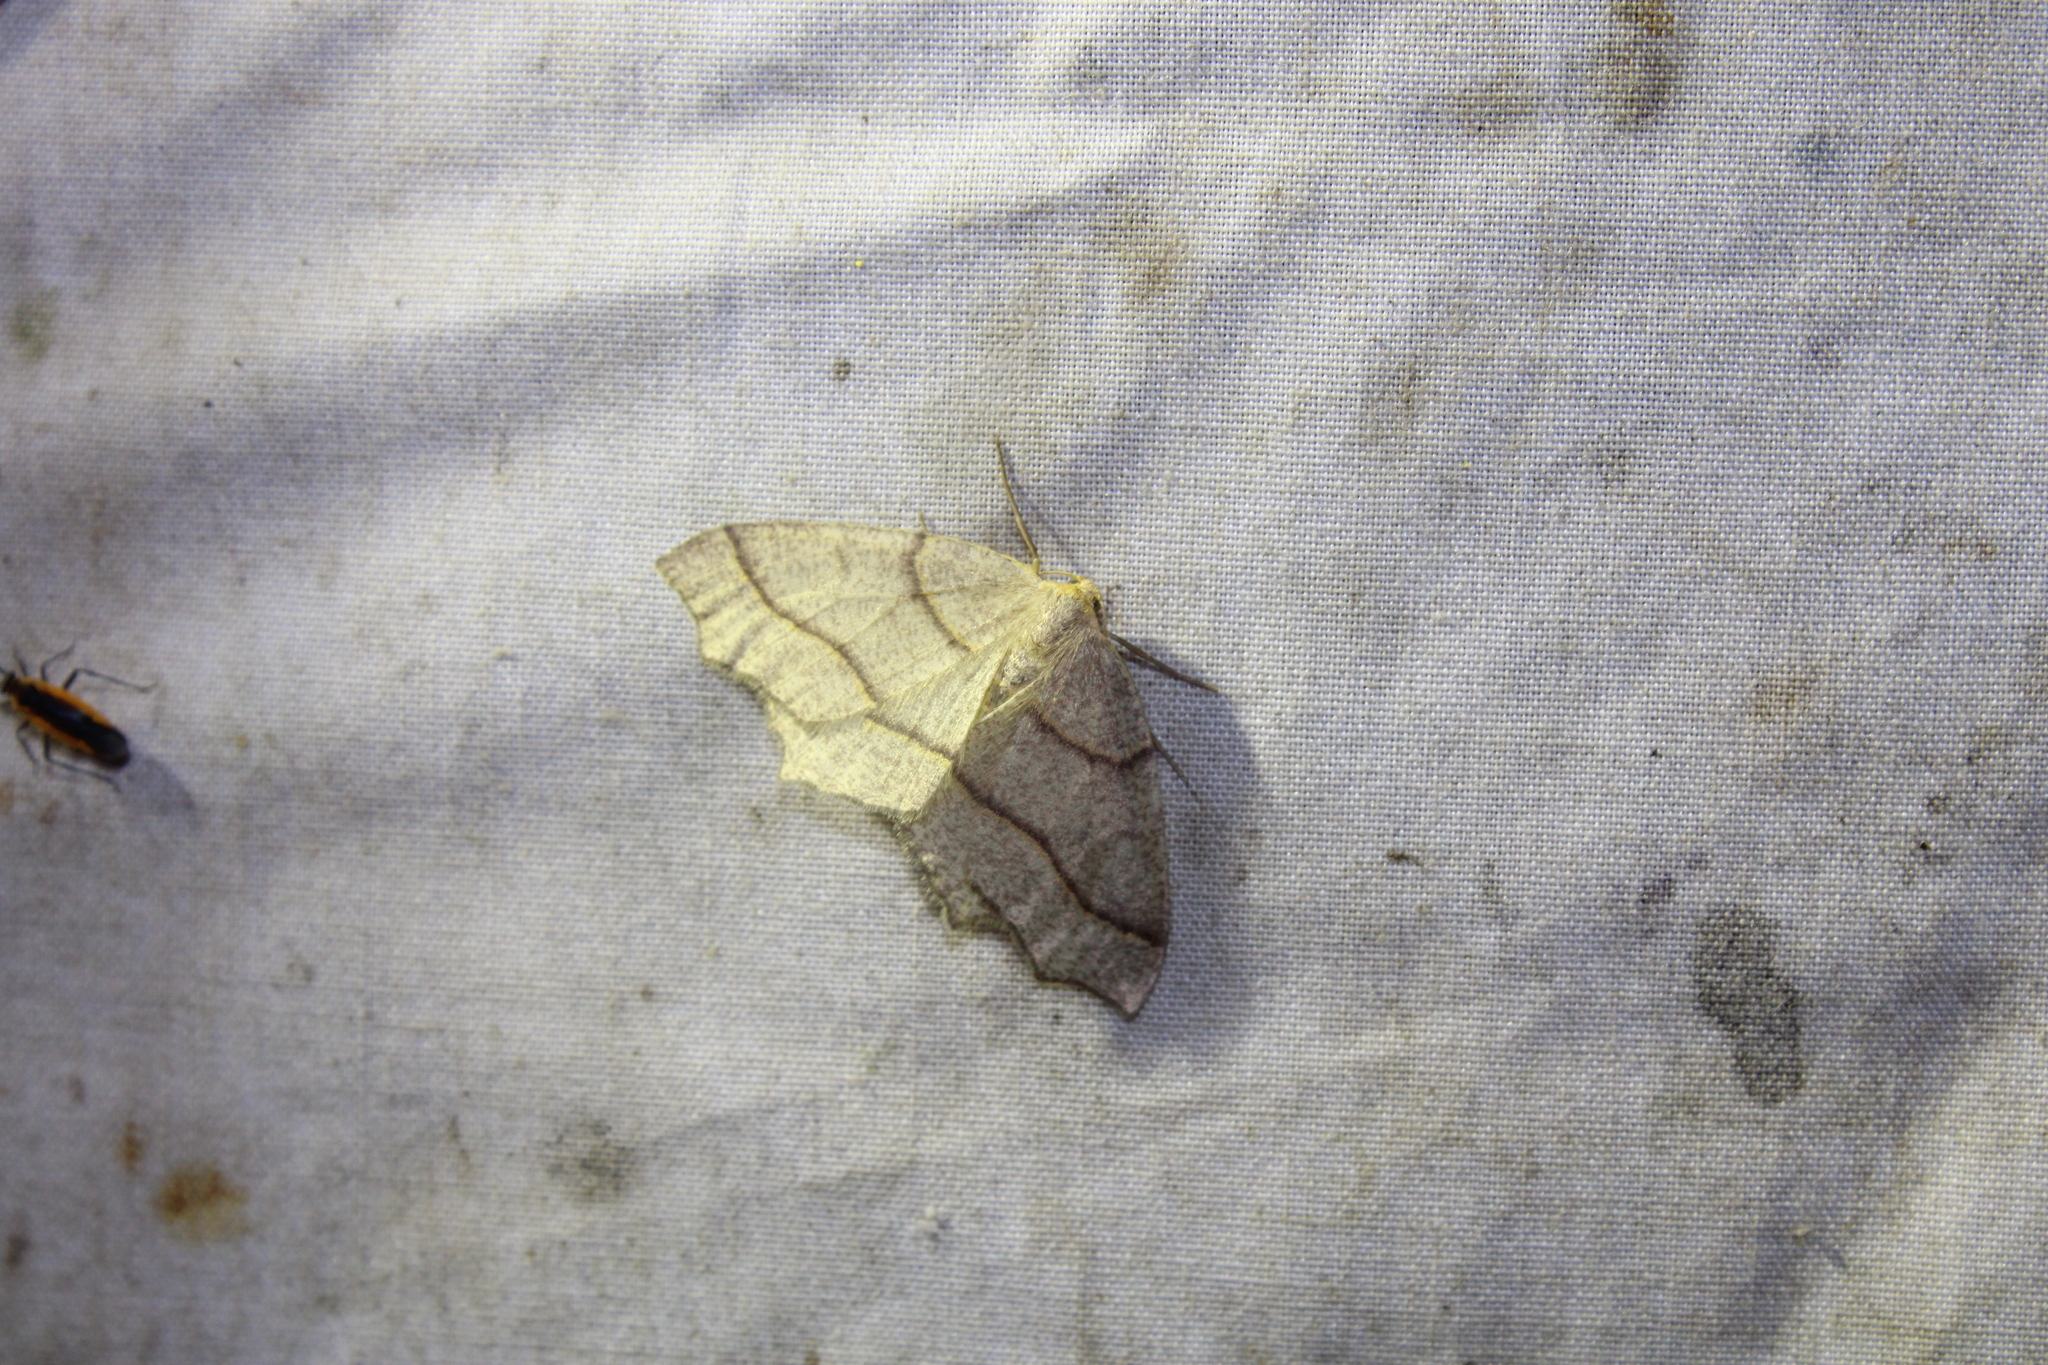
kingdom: Animalia
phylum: Arthropoda
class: Insecta
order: Lepidoptera
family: Geometridae
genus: Lambdina
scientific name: Lambdina fiscellaria
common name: Hemlock looper
